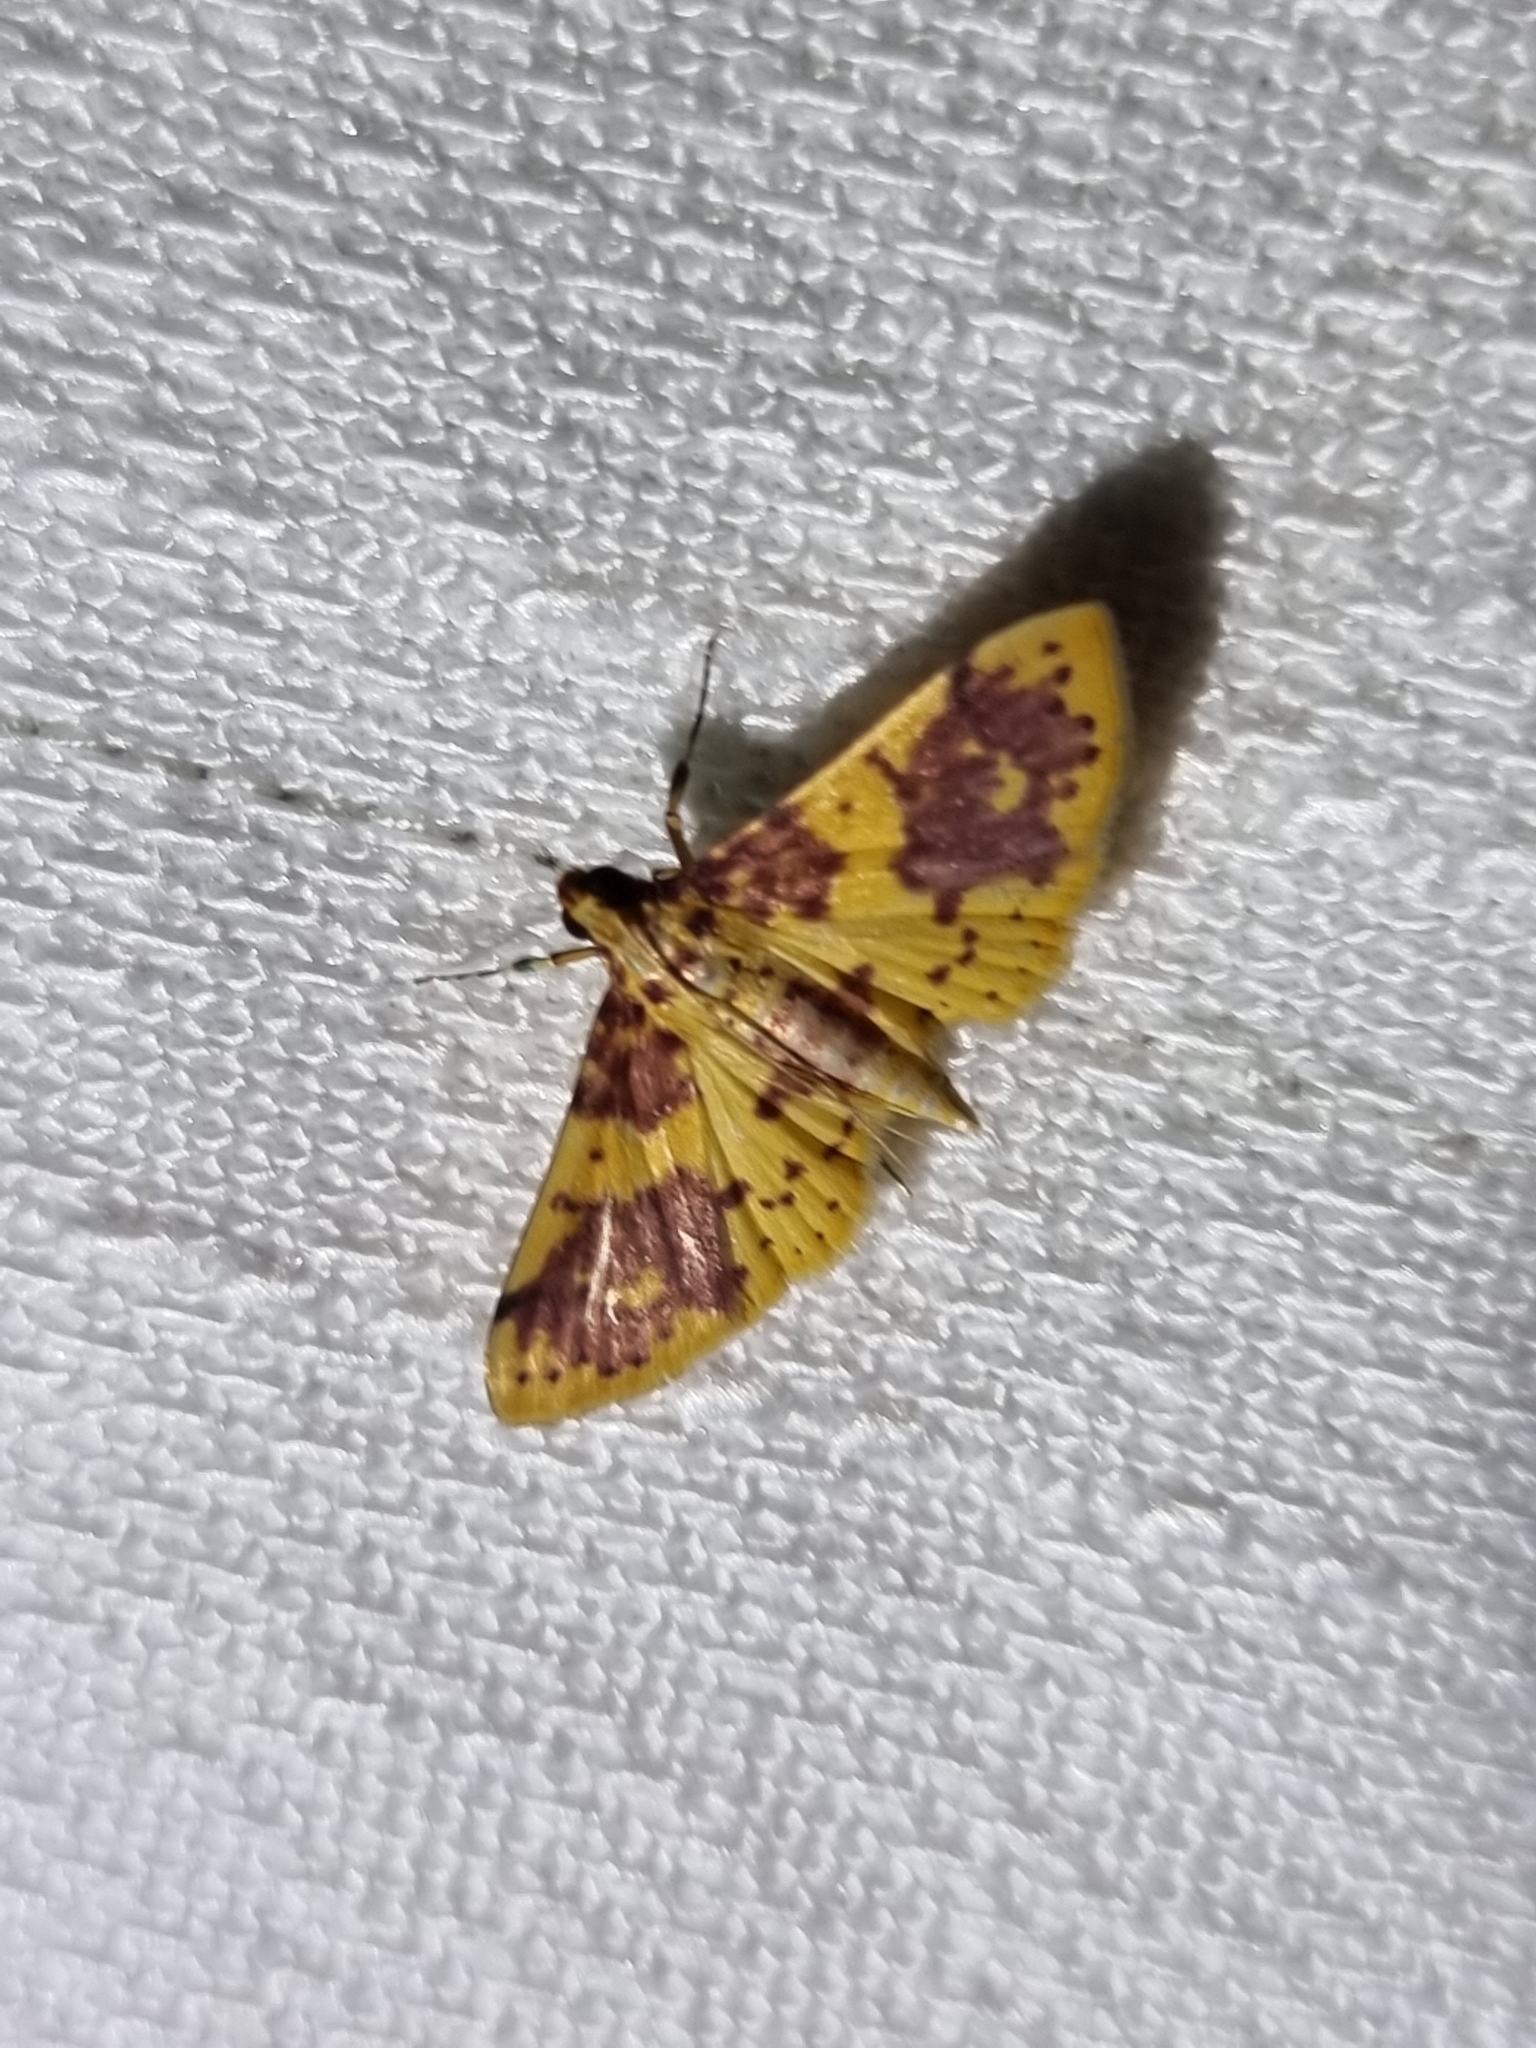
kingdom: Animalia
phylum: Arthropoda
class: Insecta
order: Lepidoptera
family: Crambidae
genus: Conogethes
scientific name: Conogethes haemactalis
